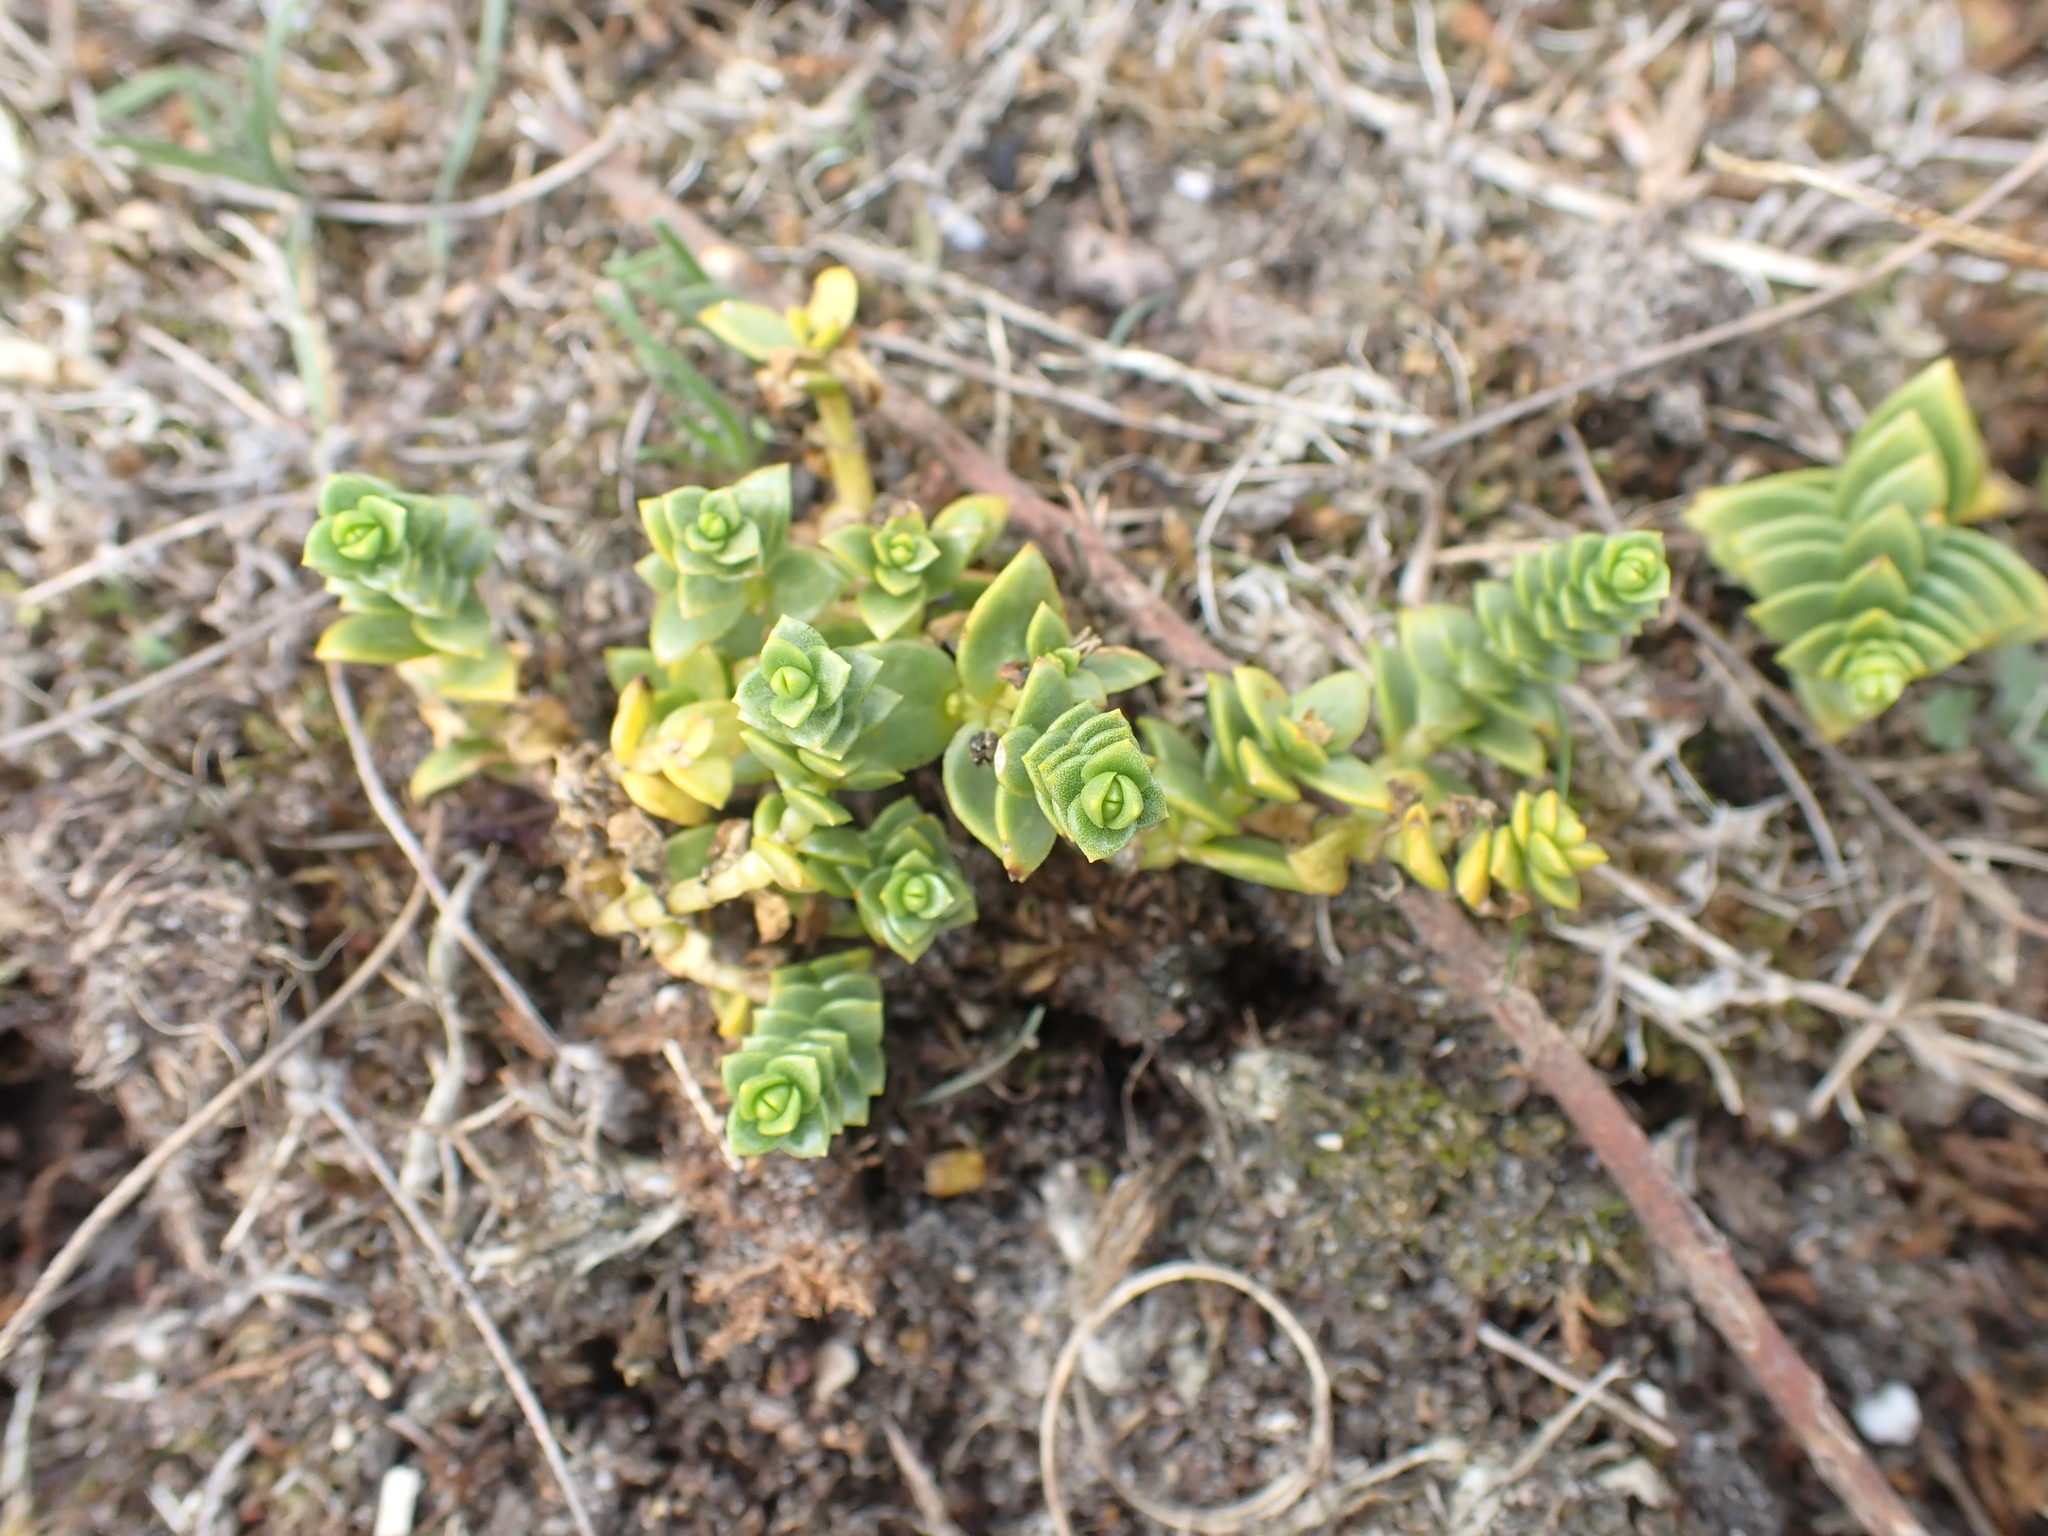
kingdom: Plantae
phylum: Tracheophyta
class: Magnoliopsida
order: Caryophyllales
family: Caryophyllaceae
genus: Honckenya
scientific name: Honckenya peploides
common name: Sea sandwort
